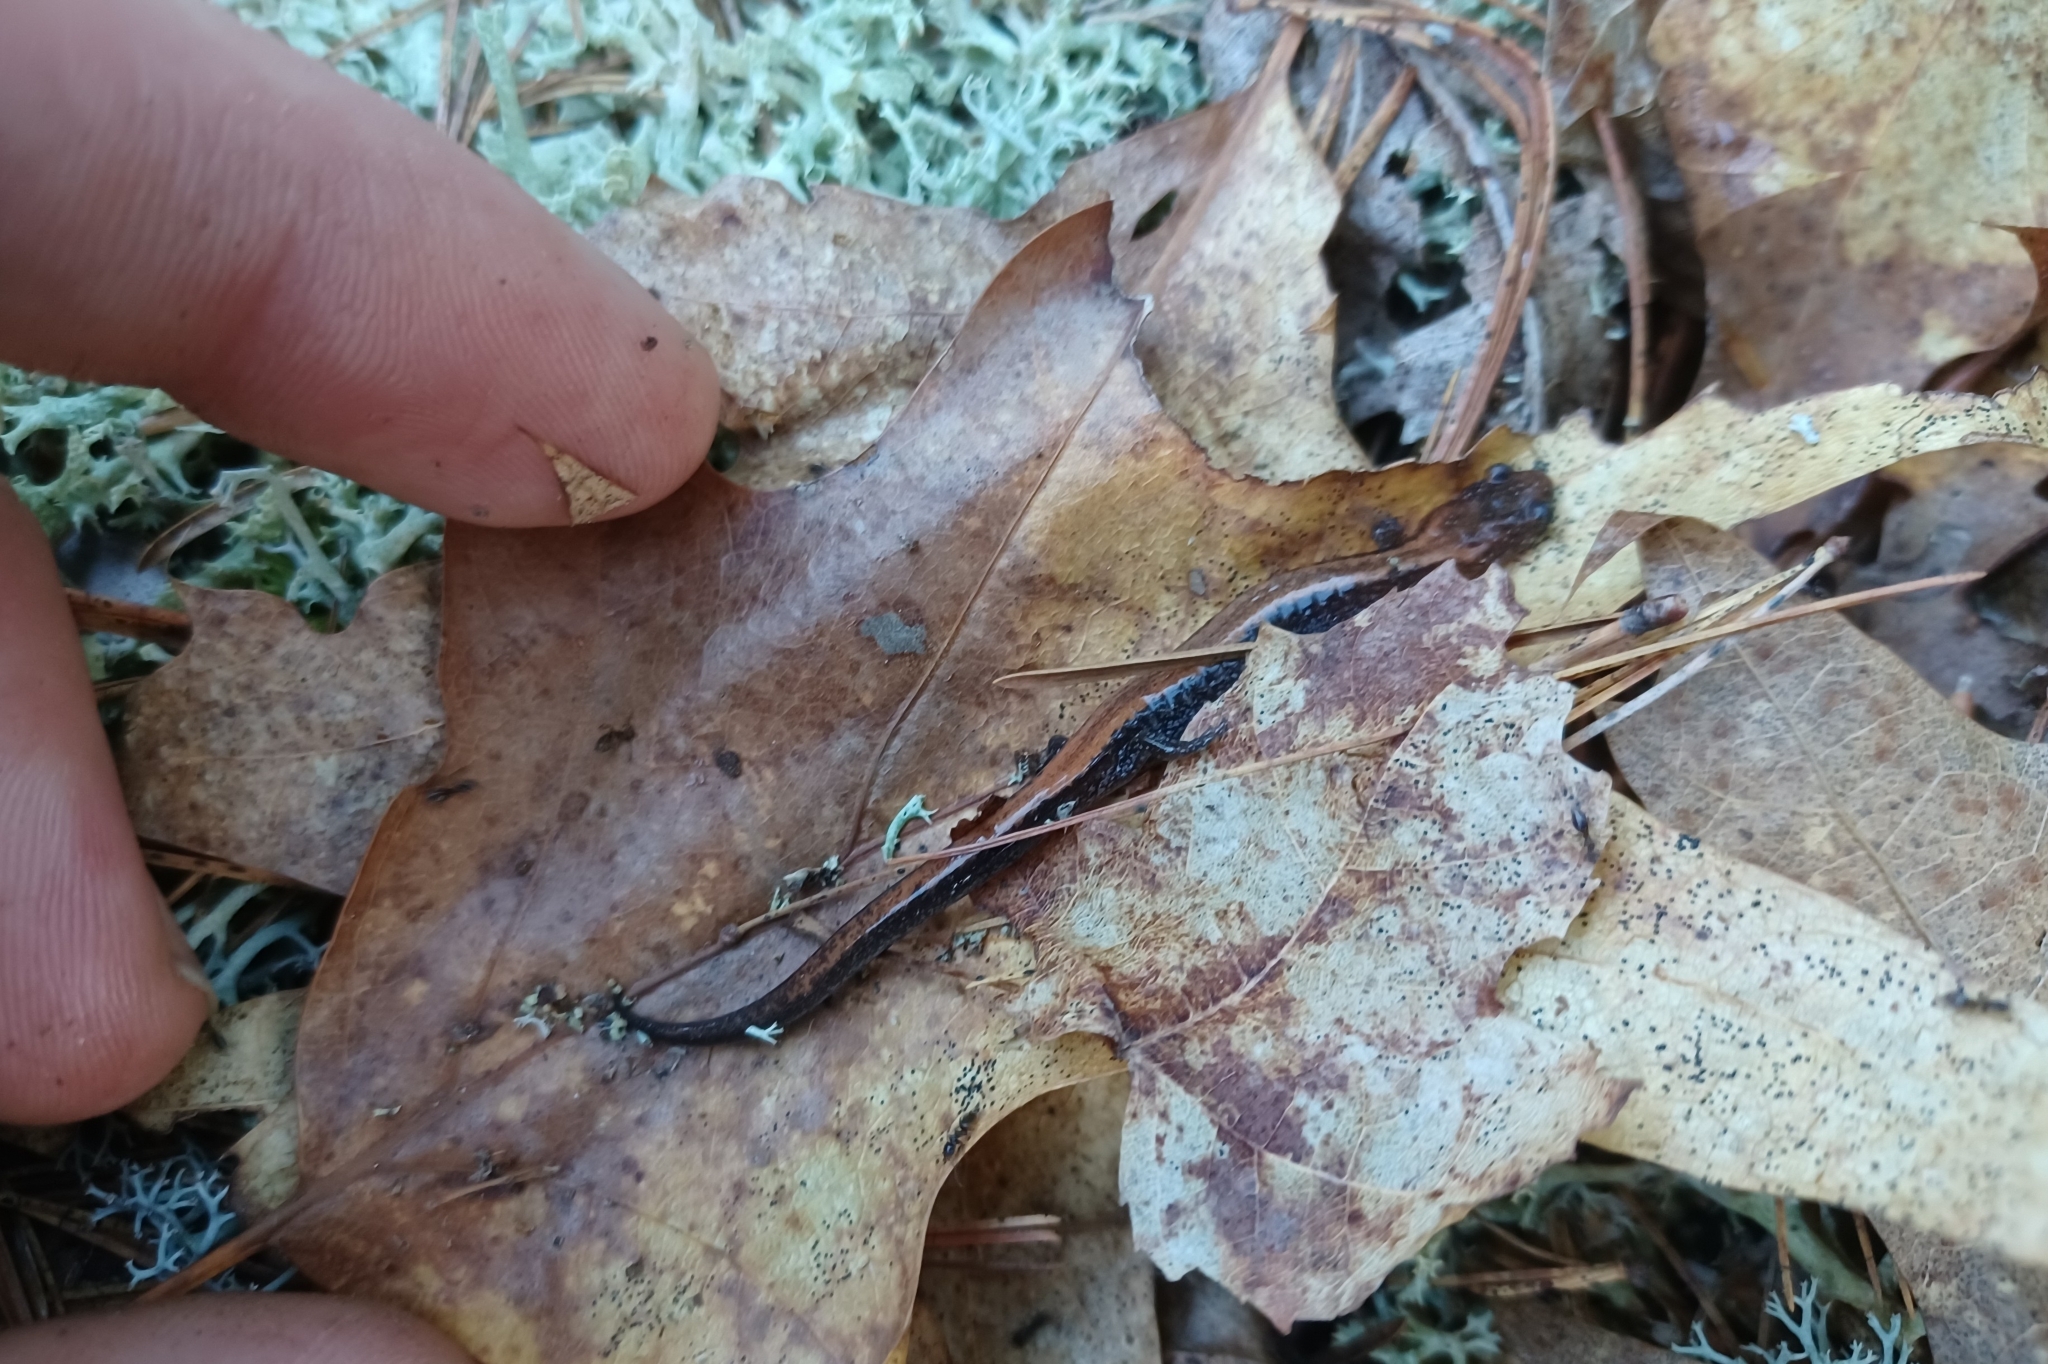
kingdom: Animalia
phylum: Chordata
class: Amphibia
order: Caudata
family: Plethodontidae
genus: Plethodon
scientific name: Plethodon cinereus
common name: Redback salamander
